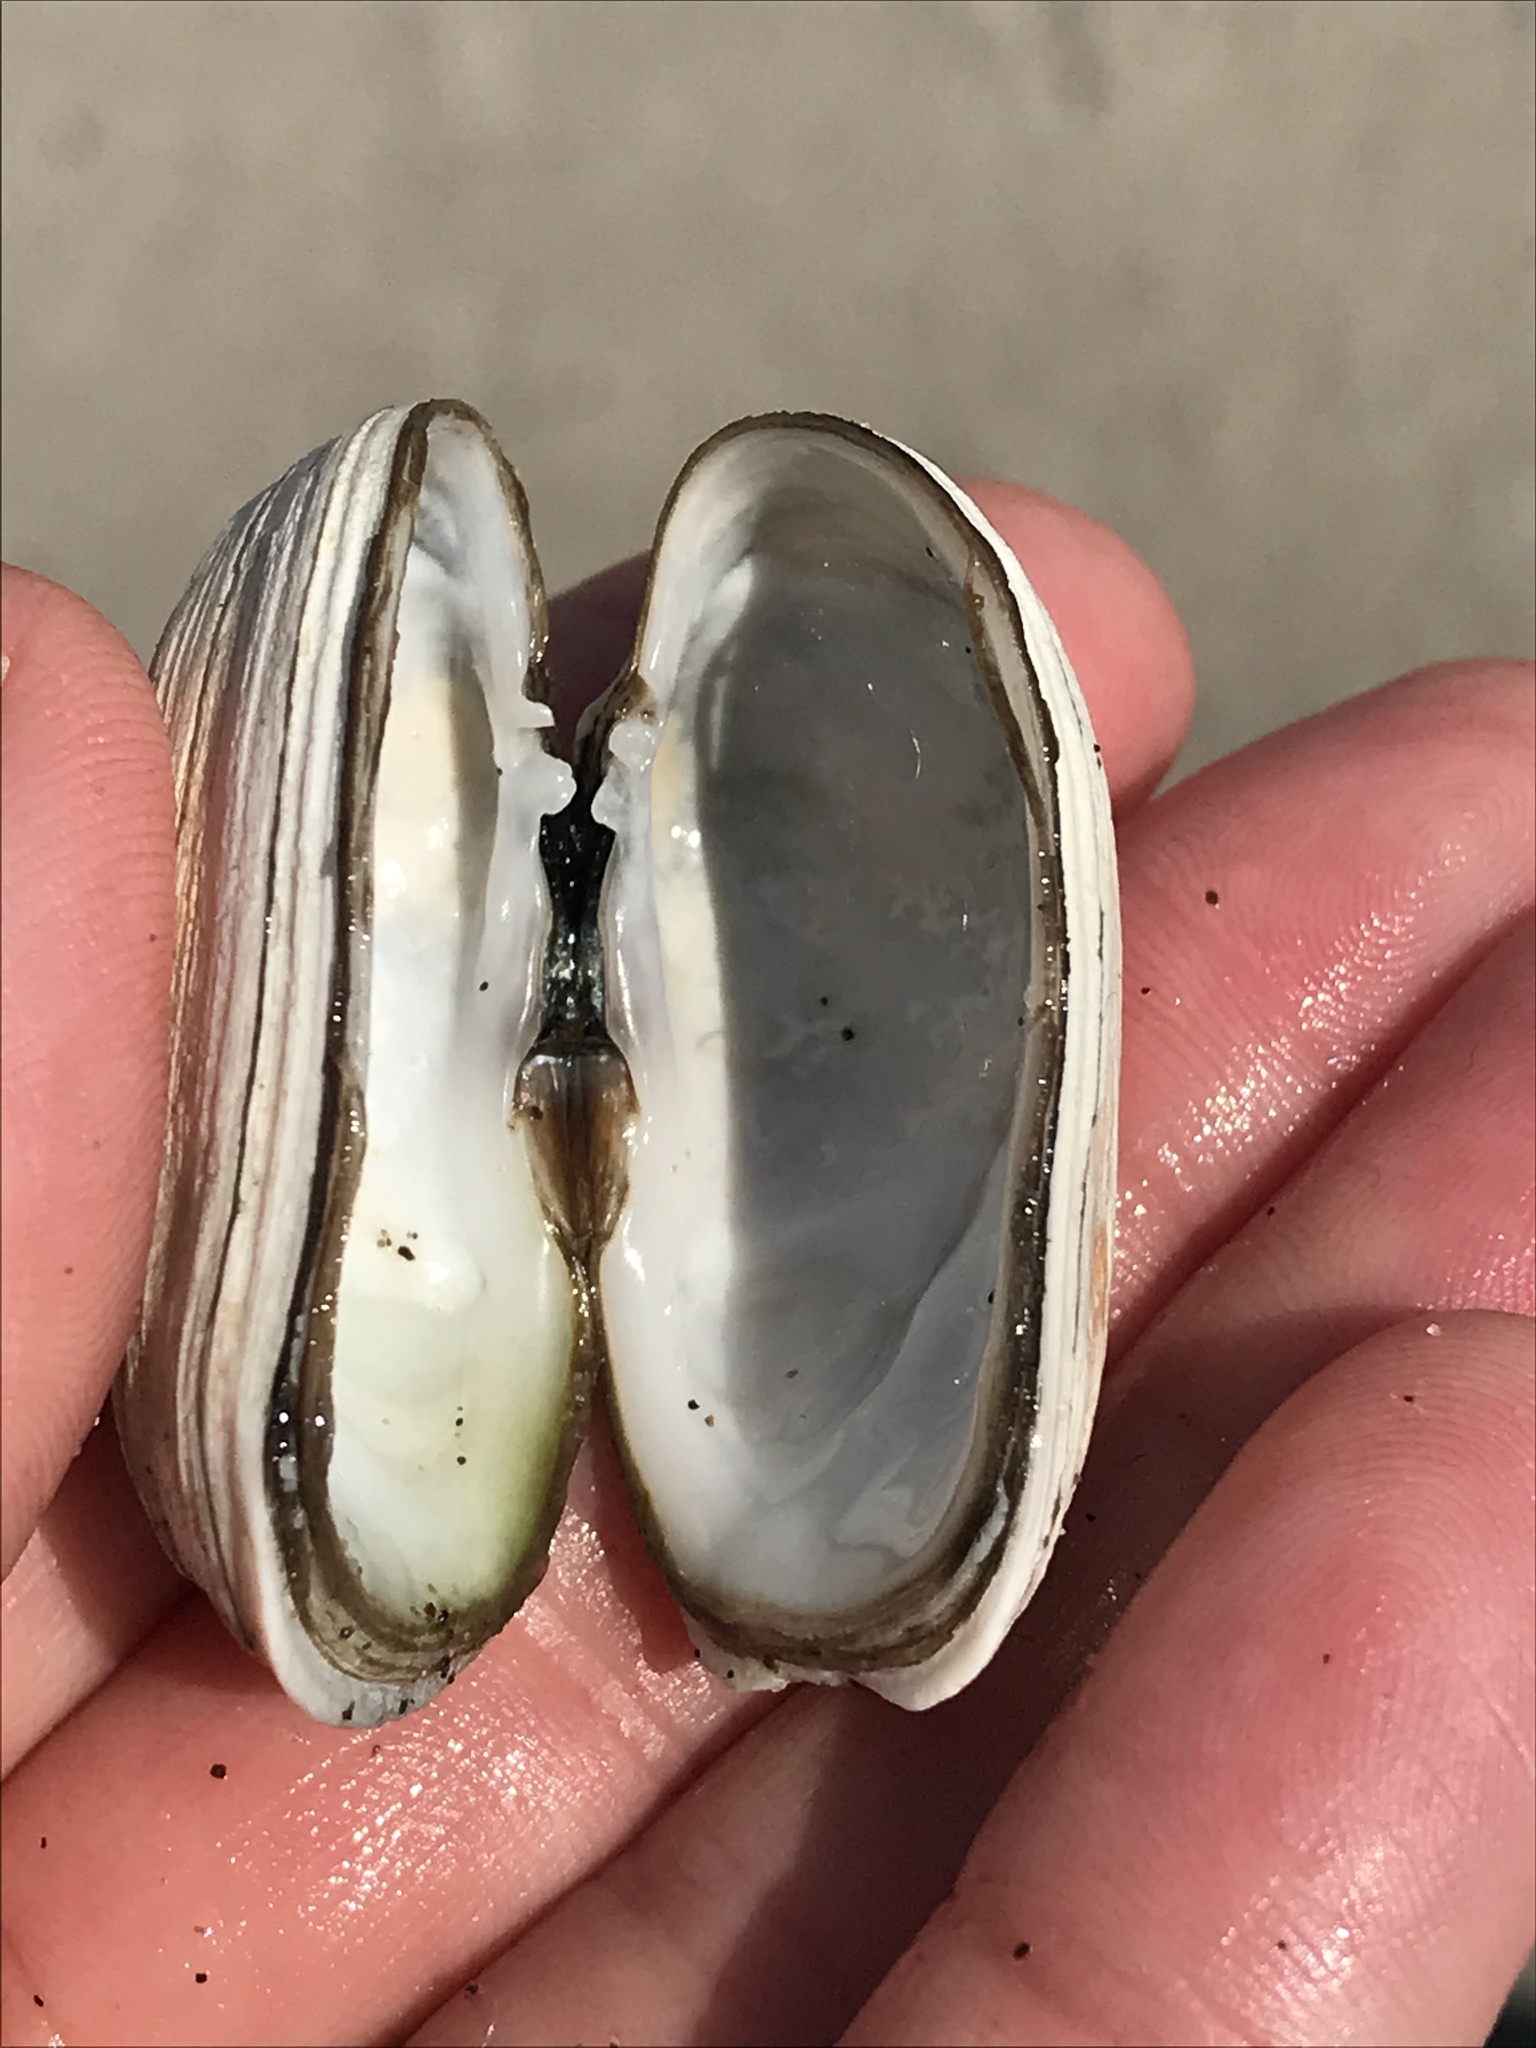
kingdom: Animalia
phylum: Mollusca
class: Bivalvia
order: Venerida
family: Veneridae
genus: Petricola
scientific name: Petricola carditoides
